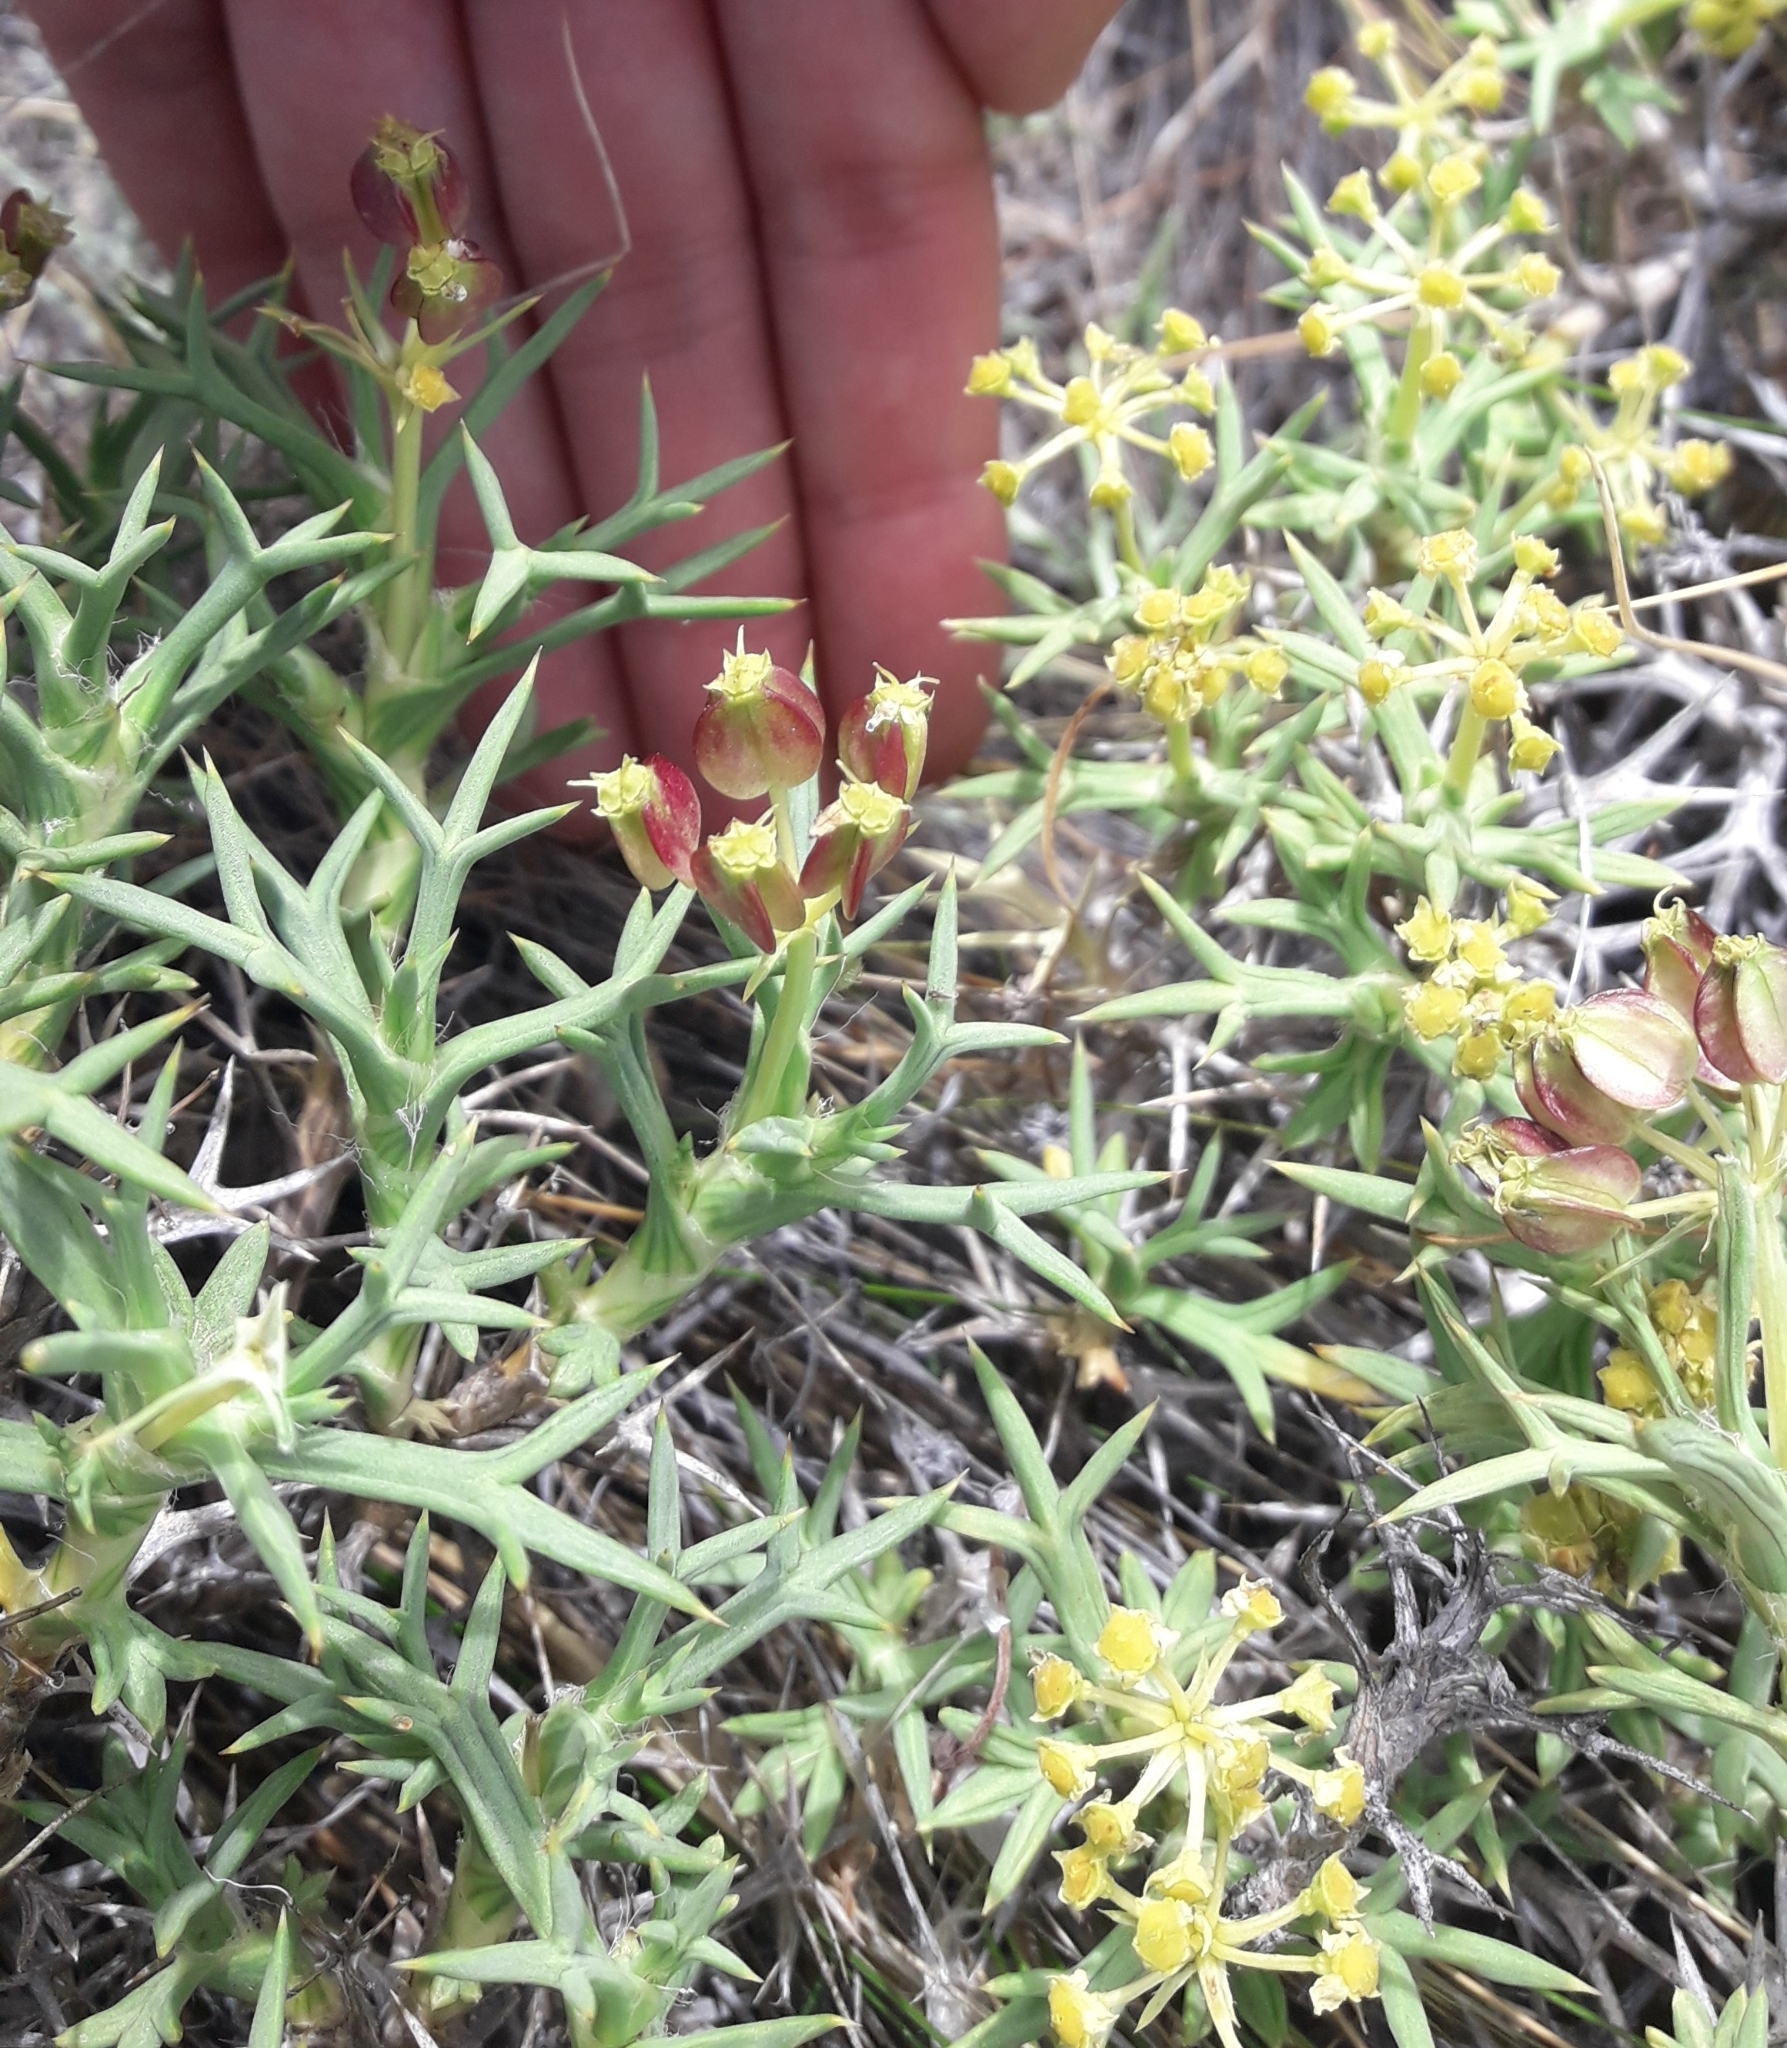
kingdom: Plantae
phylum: Tracheophyta
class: Magnoliopsida
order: Apiales
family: Apiaceae
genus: Azorella
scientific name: Azorella prolifera
